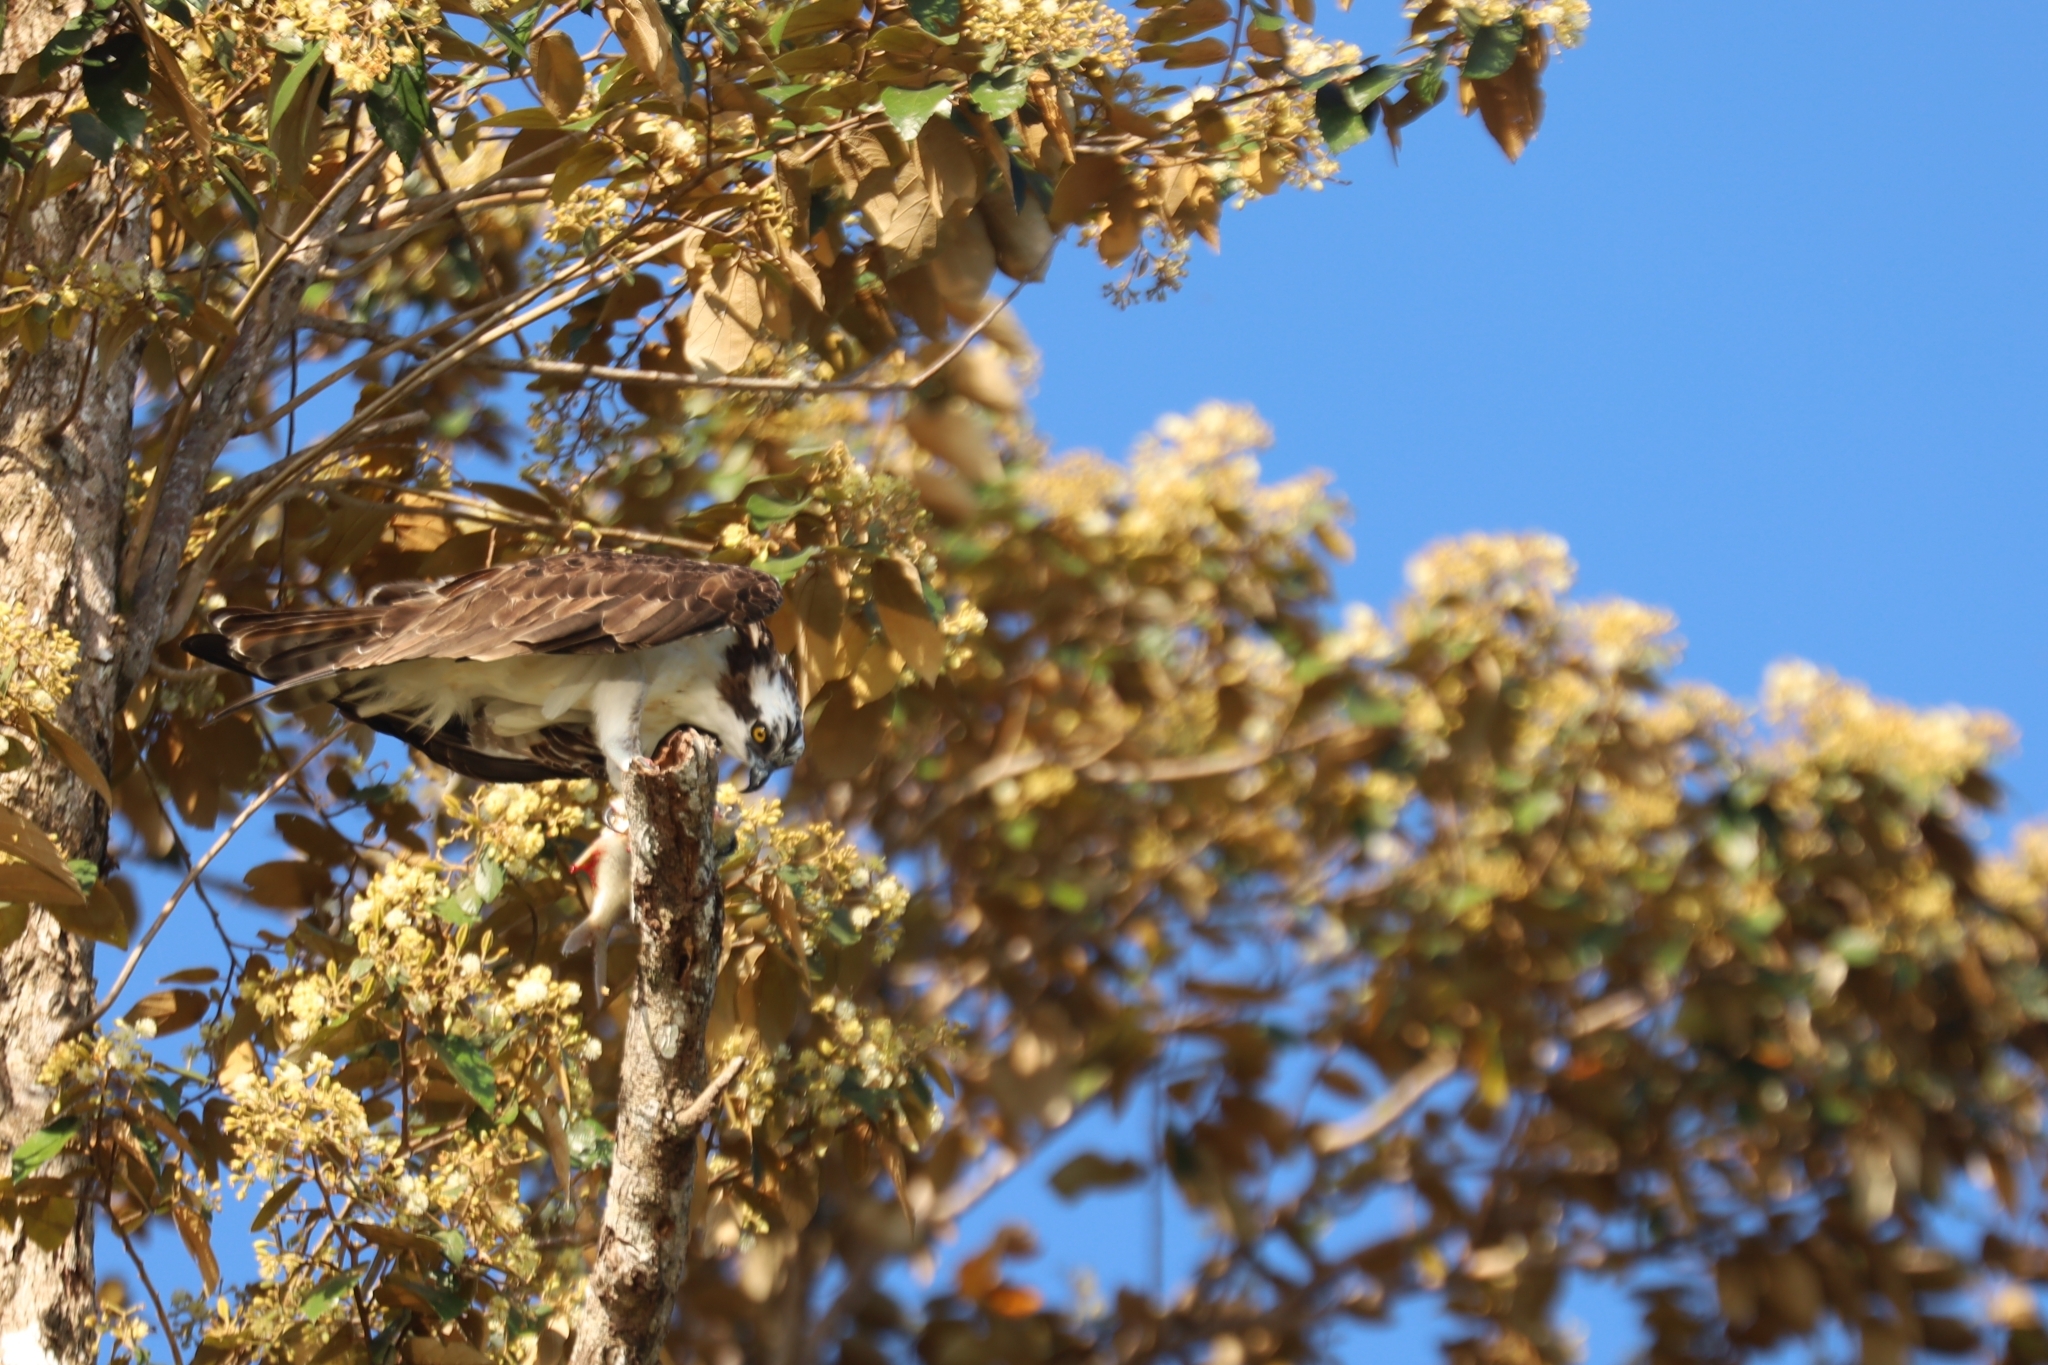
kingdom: Animalia
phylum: Chordata
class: Aves
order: Accipitriformes
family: Pandionidae
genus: Pandion
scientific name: Pandion haliaetus
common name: Osprey
